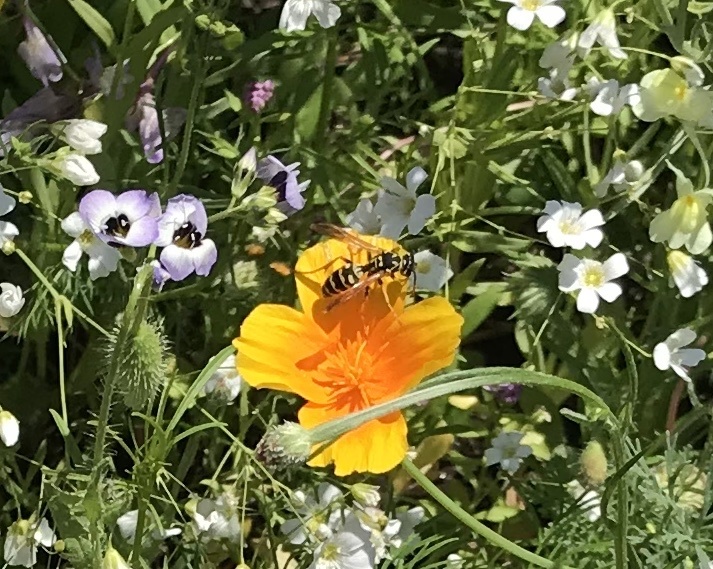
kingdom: Animalia
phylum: Arthropoda
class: Insecta
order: Hymenoptera
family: Eumenidae
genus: Polistes
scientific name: Polistes dominula
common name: Paper wasp
